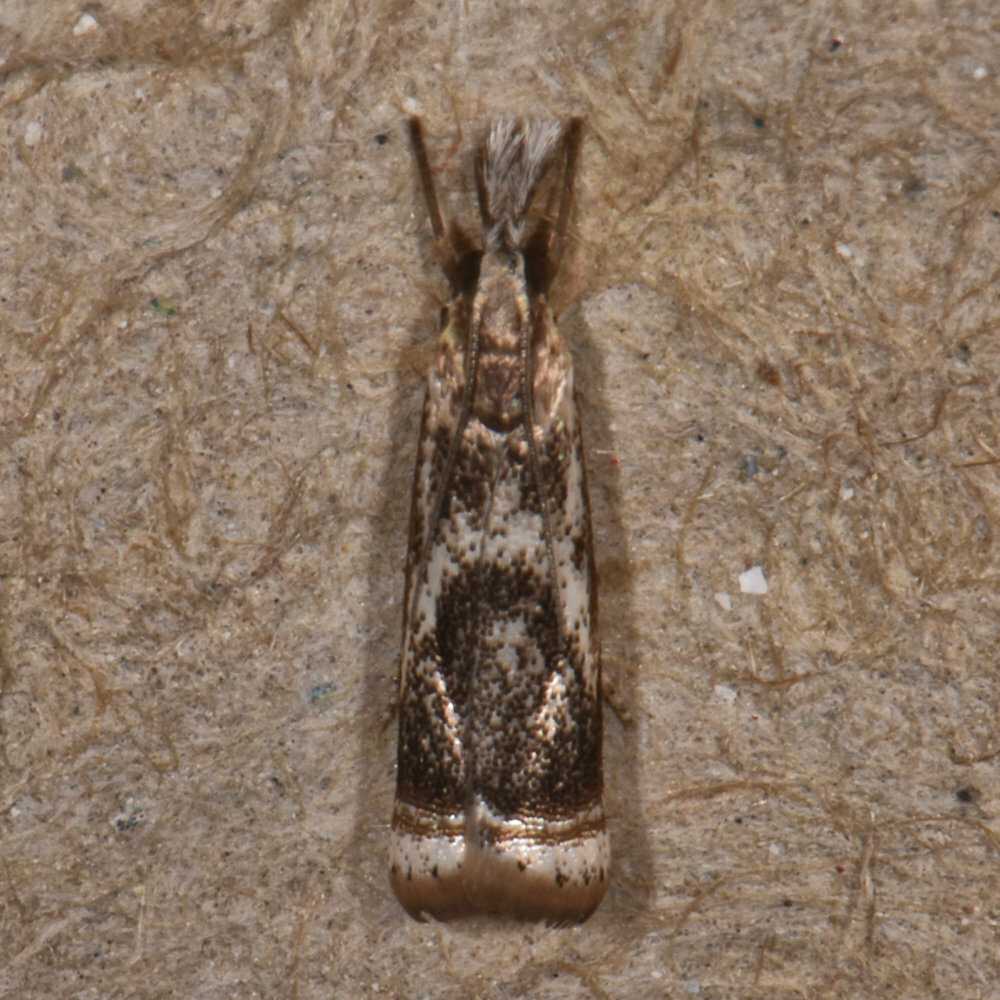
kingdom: Animalia
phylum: Arthropoda
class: Insecta
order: Lepidoptera
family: Crambidae
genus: Microcrambus
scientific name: Microcrambus elegans
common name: Elegant grass-veneer
